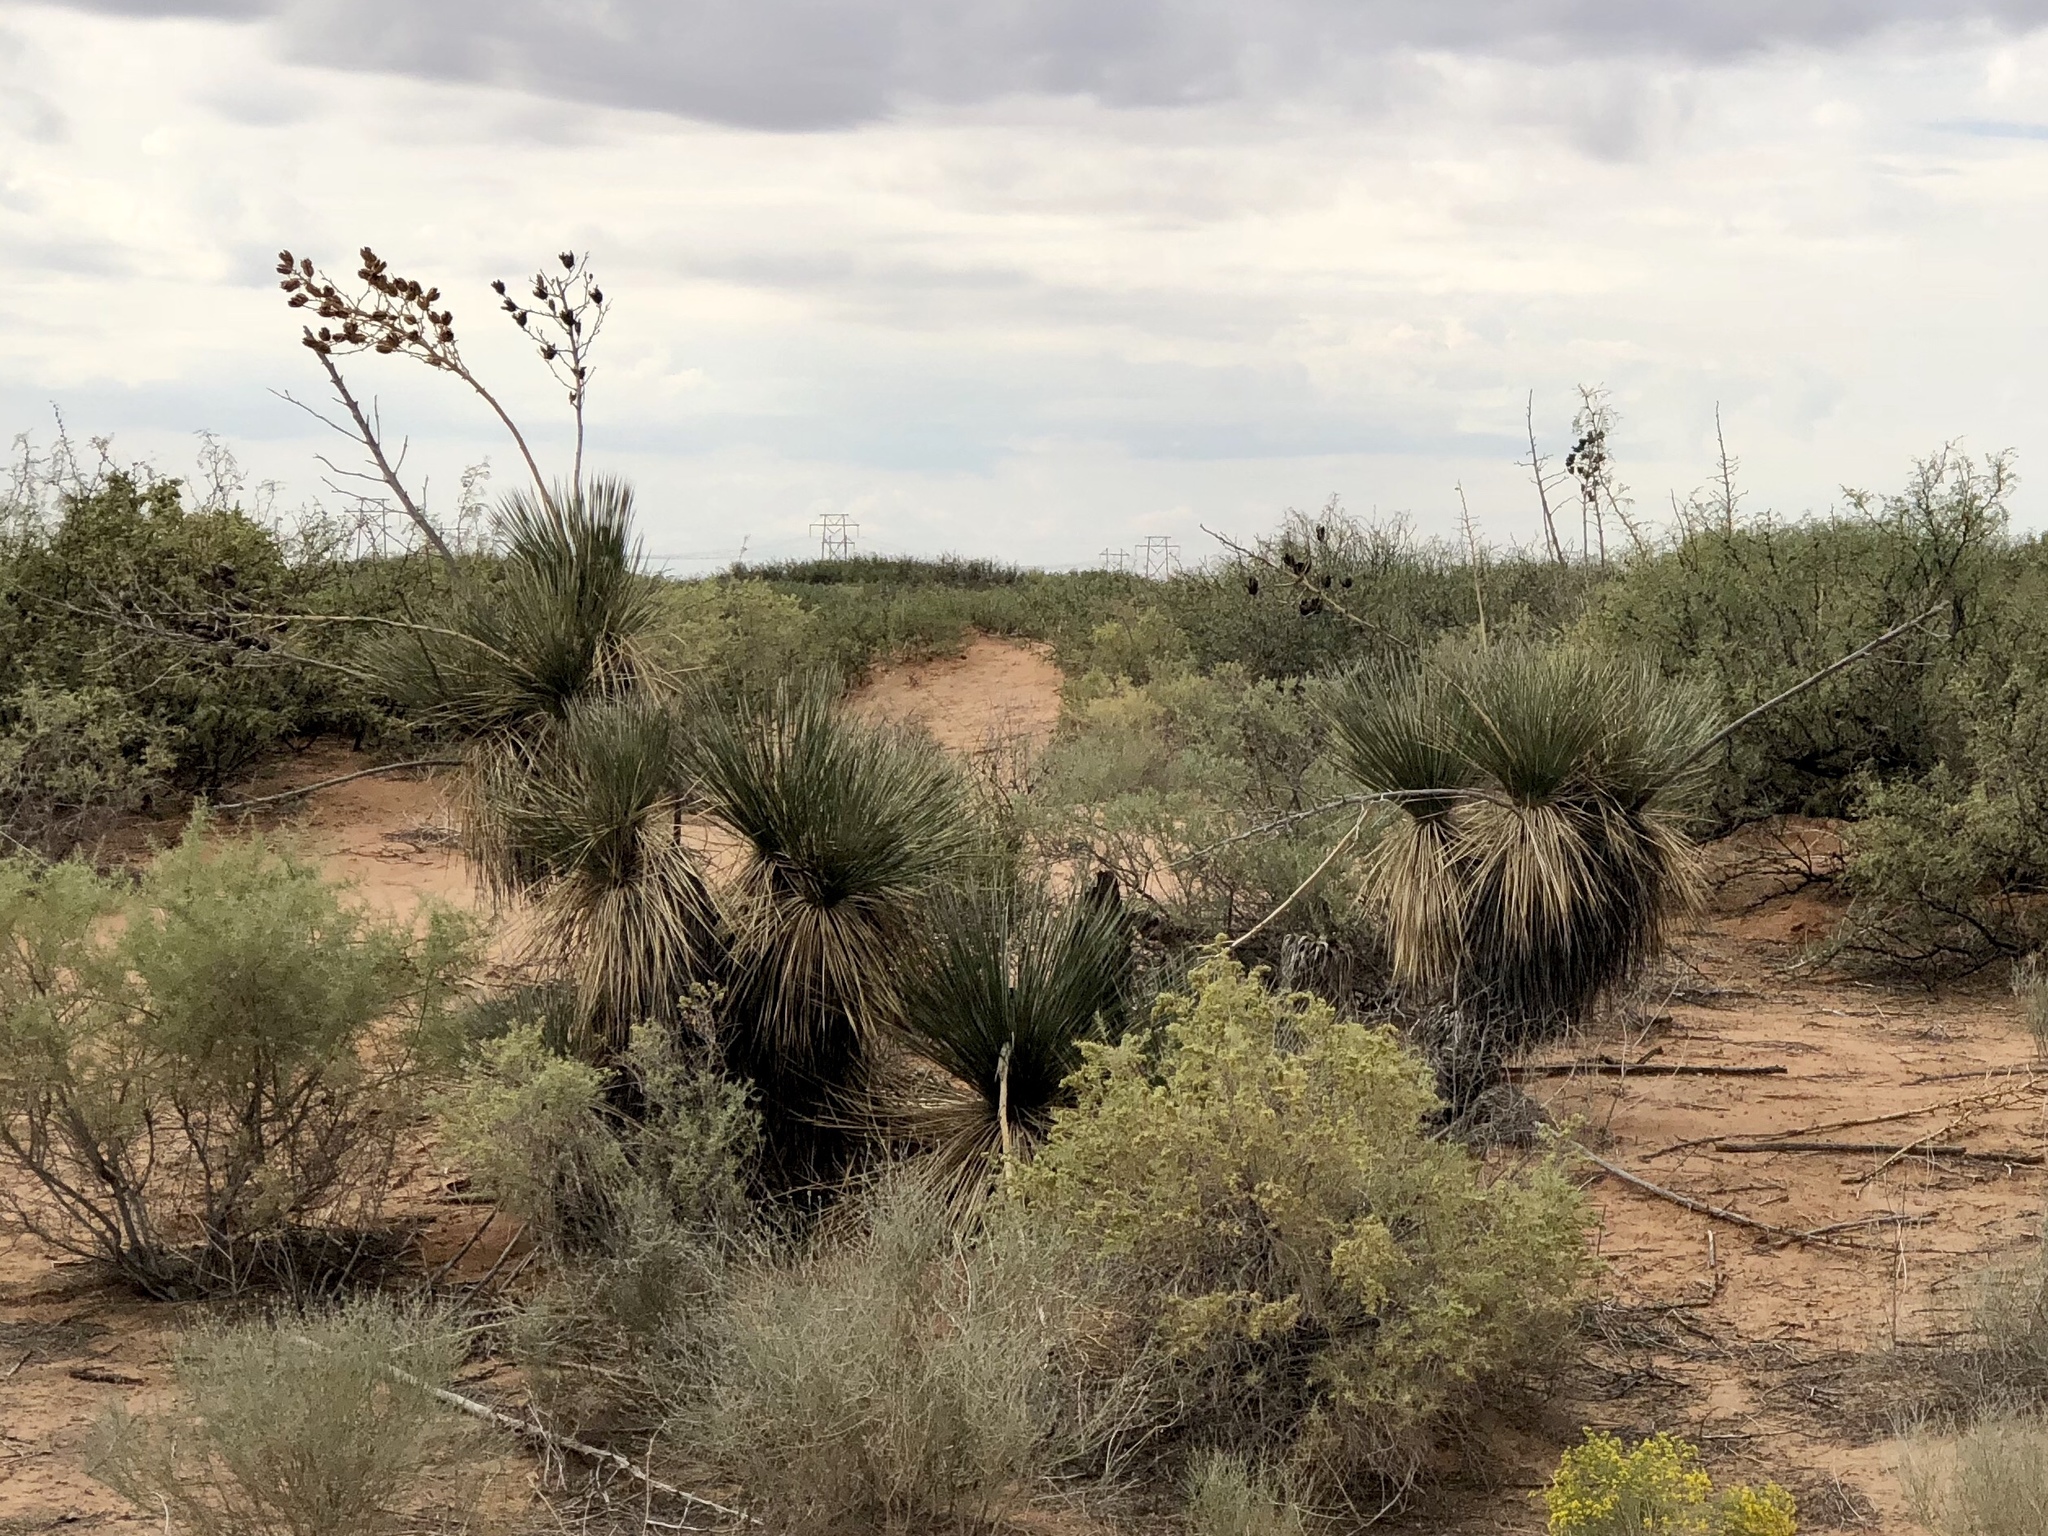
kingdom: Plantae
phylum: Tracheophyta
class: Liliopsida
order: Asparagales
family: Asparagaceae
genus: Yucca
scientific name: Yucca elata
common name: Palmella
